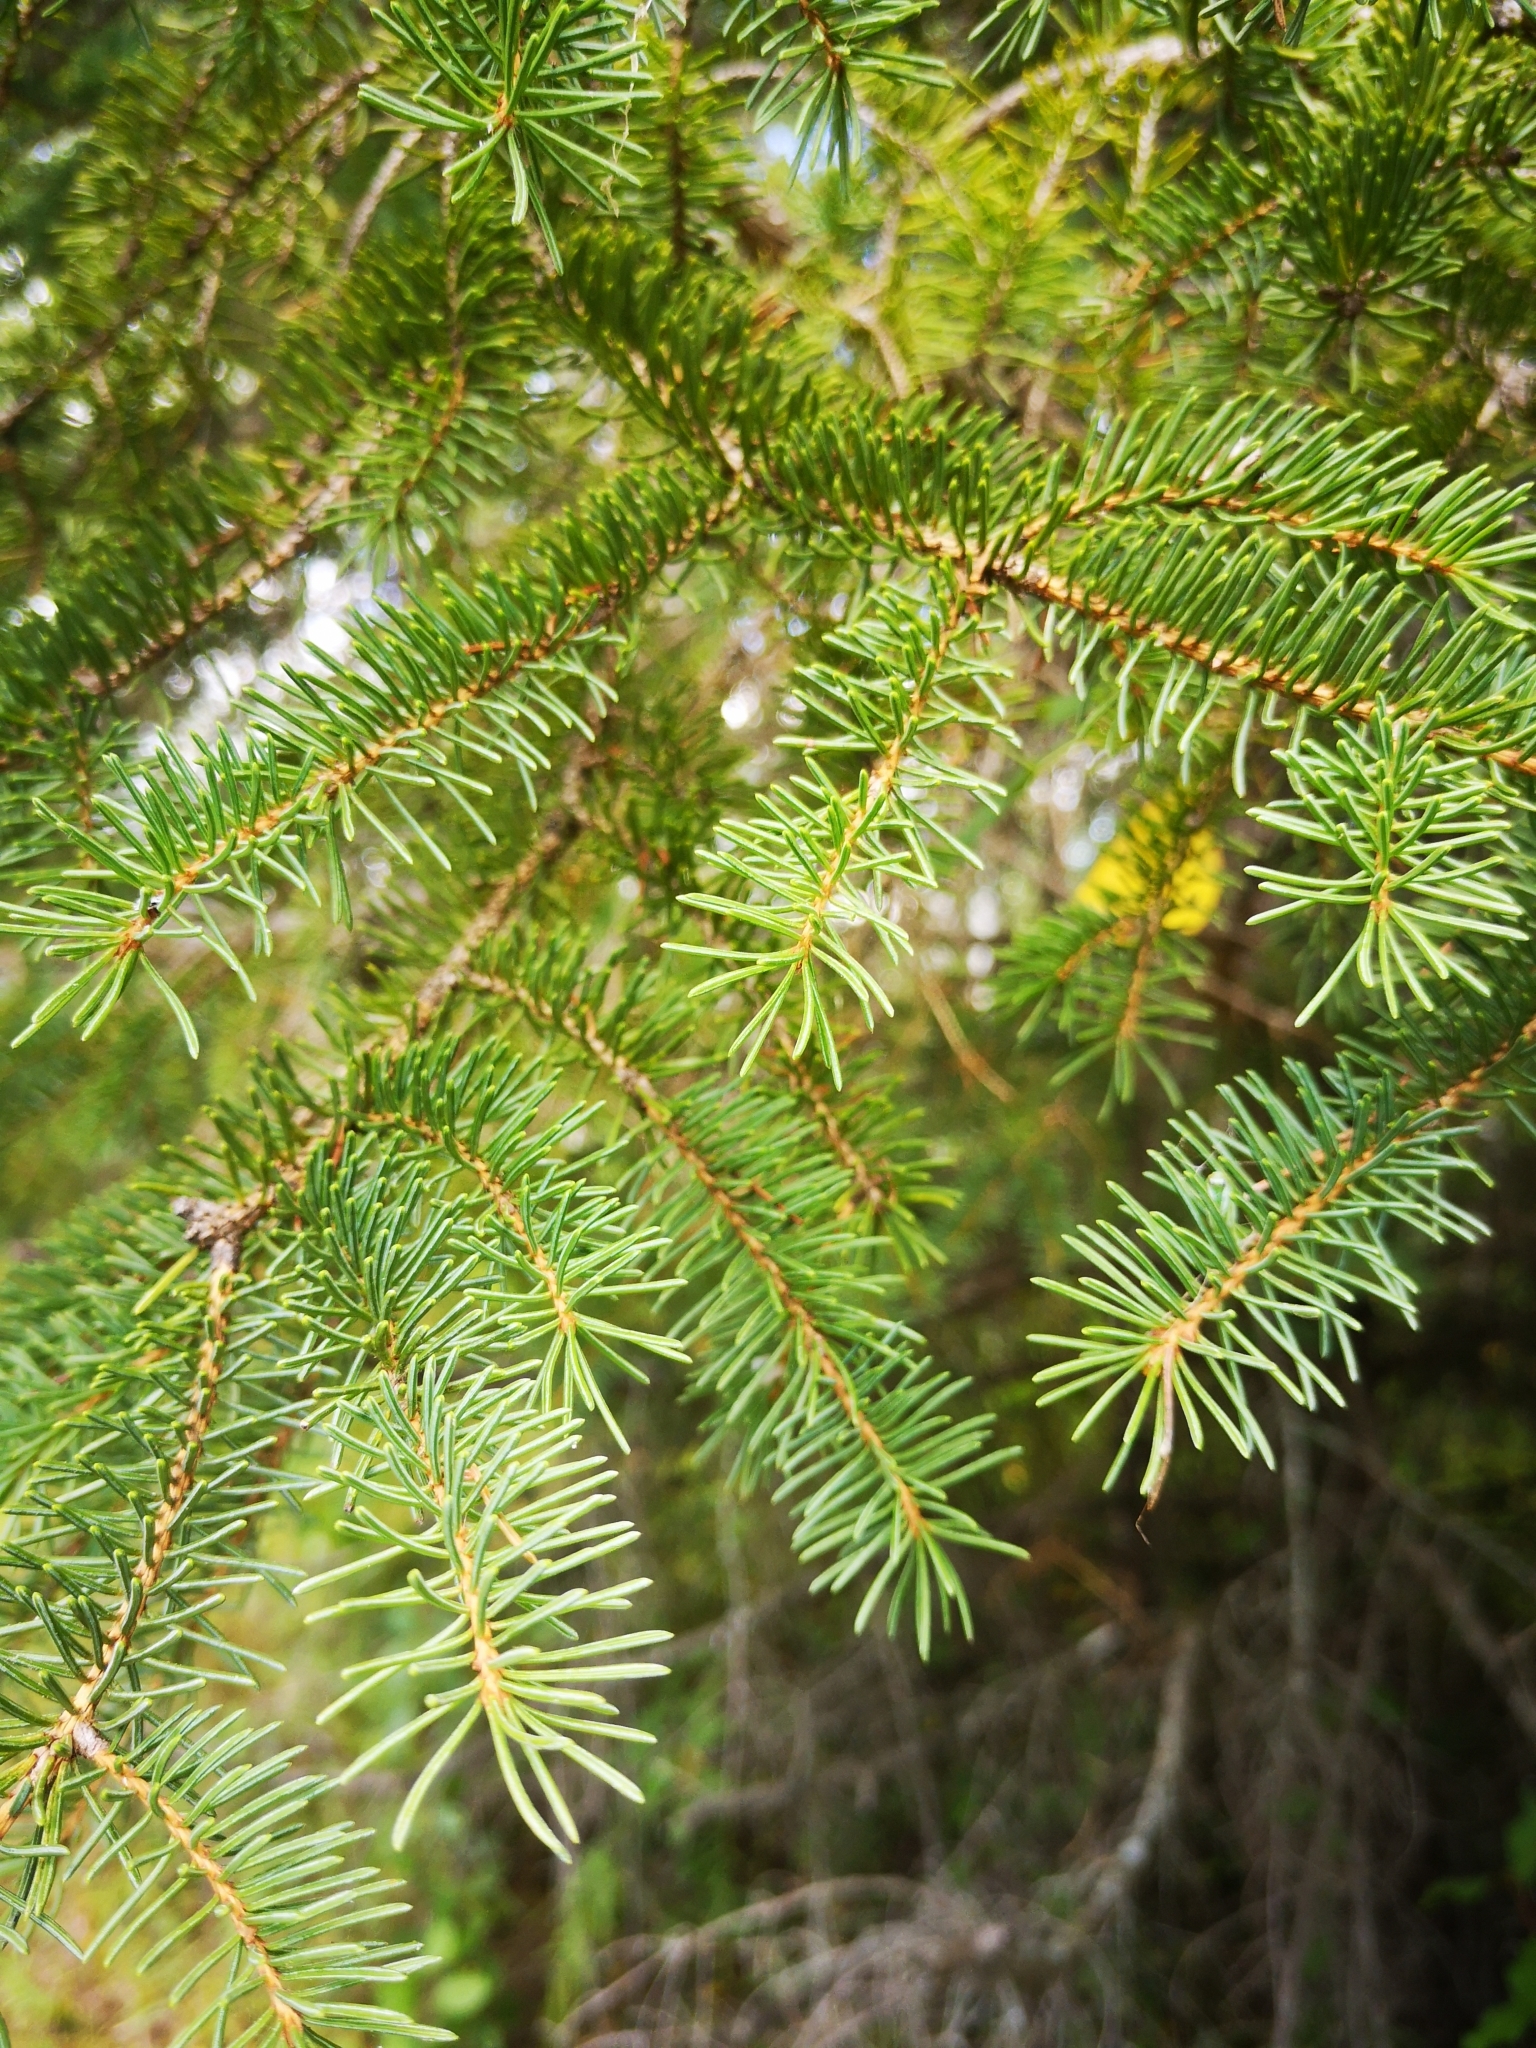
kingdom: Animalia
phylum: Arthropoda
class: Insecta
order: Hemiptera
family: Adelgidae
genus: Adelges
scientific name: Adelges abietis
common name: Eastern spruce gall adelgid
